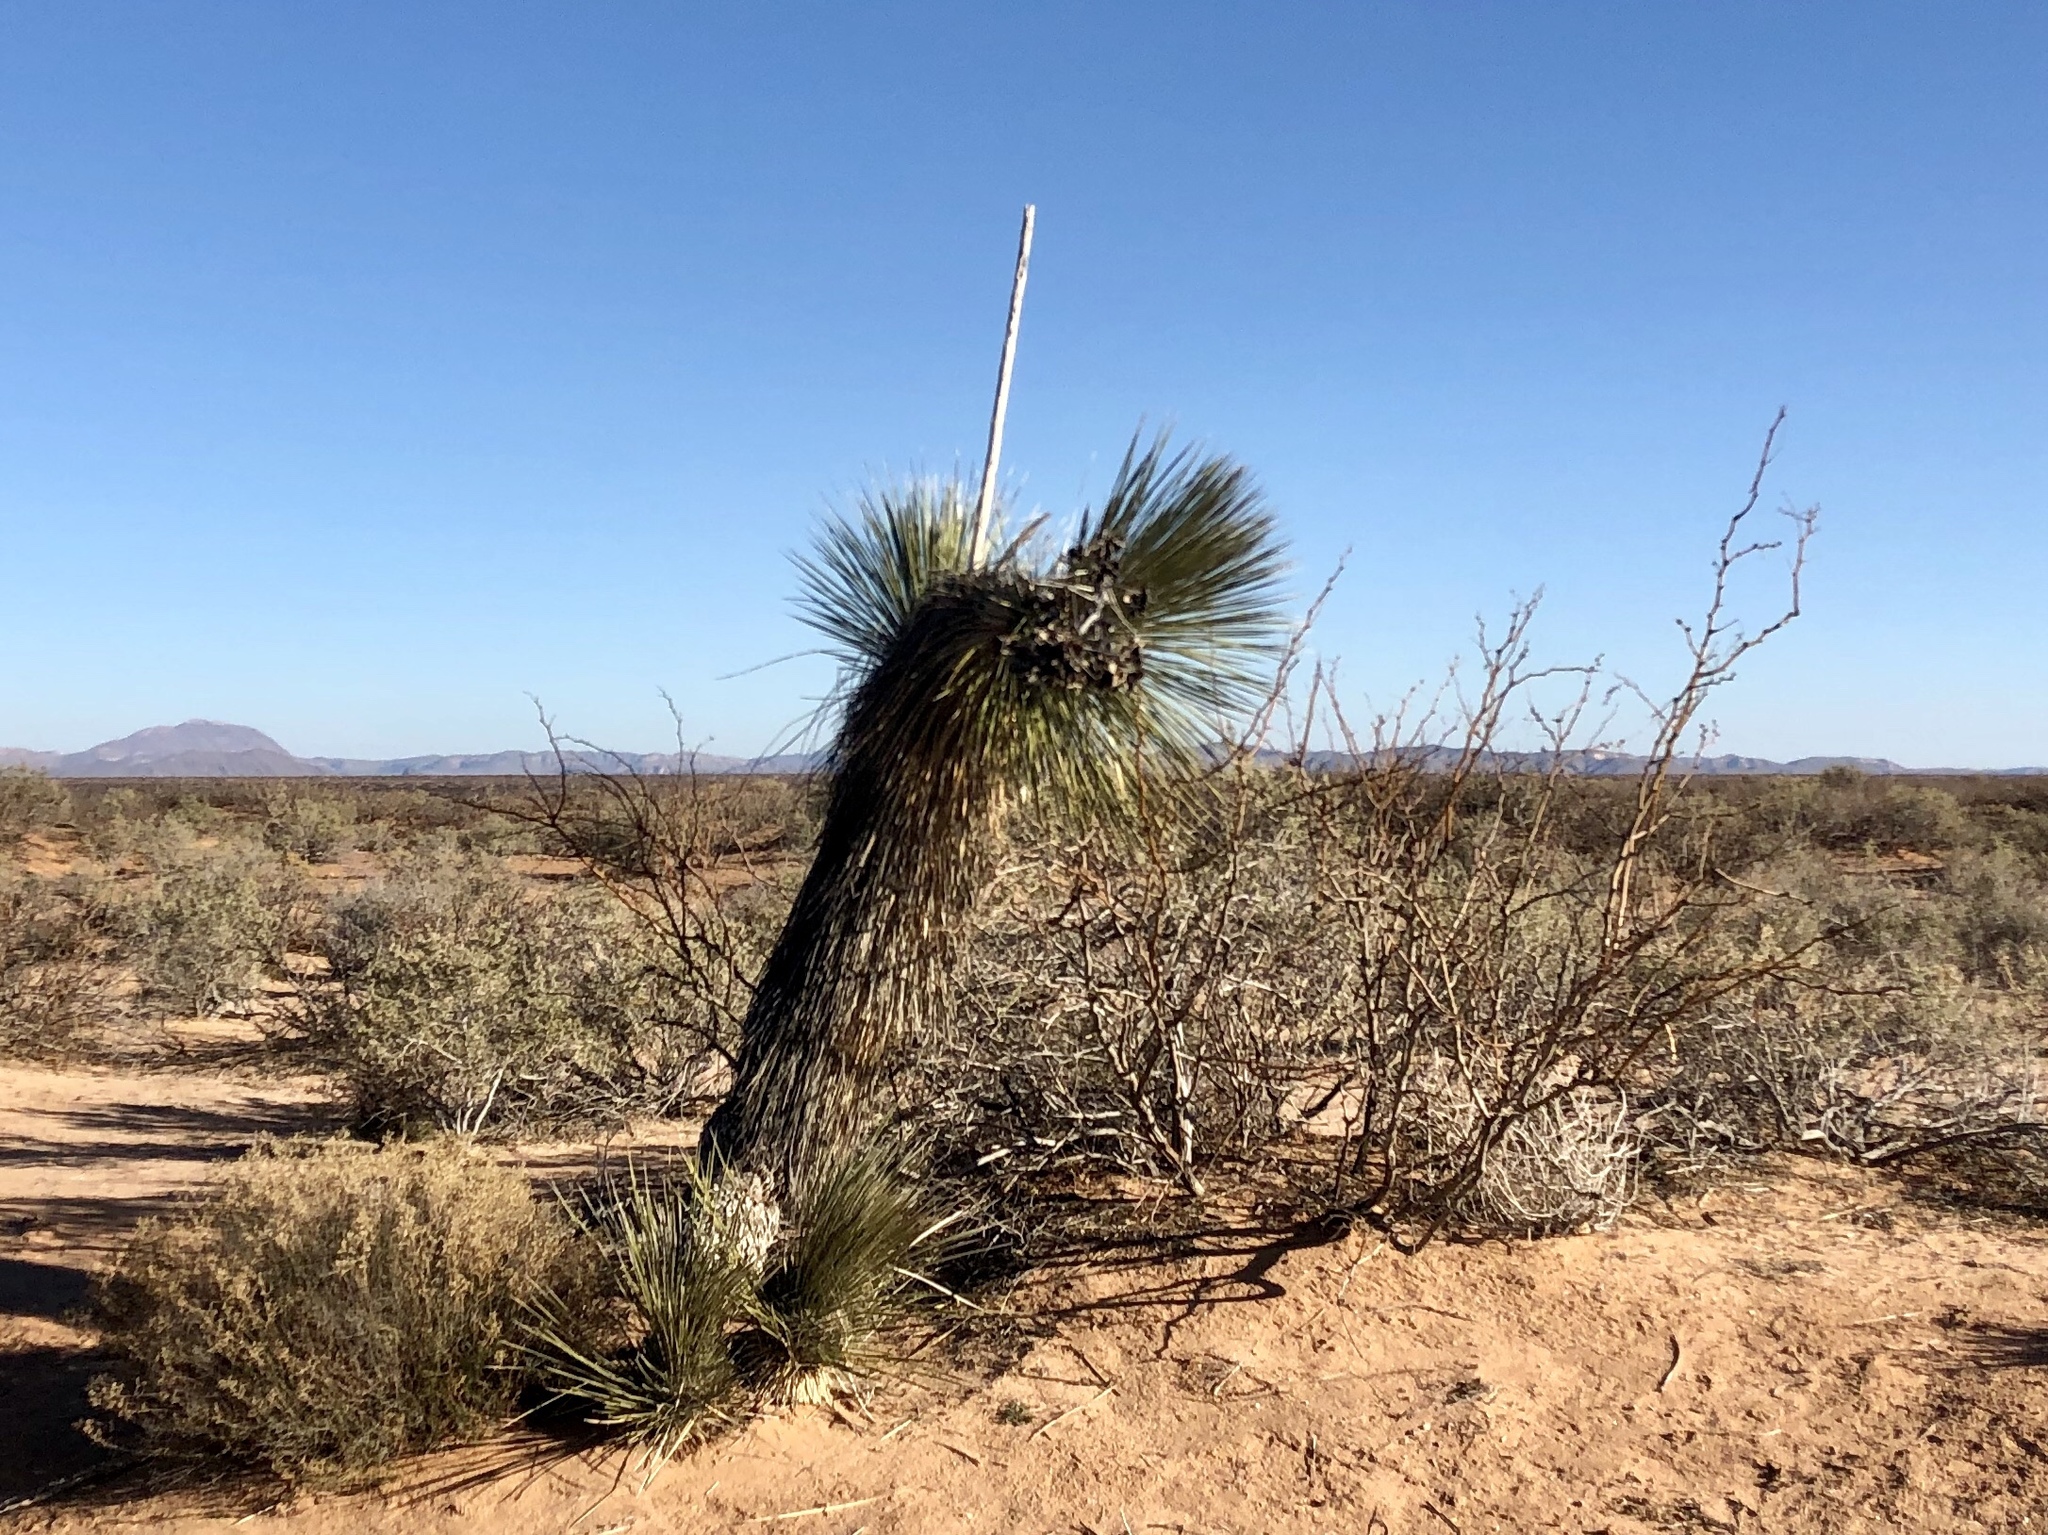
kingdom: Plantae
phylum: Tracheophyta
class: Liliopsida
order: Asparagales
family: Asparagaceae
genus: Yucca
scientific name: Yucca elata
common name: Palmella
